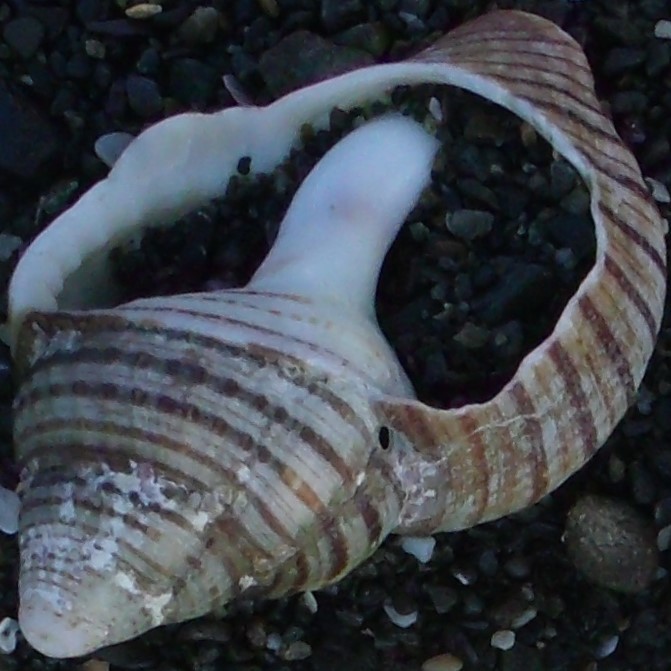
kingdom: Animalia
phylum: Mollusca
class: Gastropoda
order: Littorinimorpha
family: Cymatiidae
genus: Argobuccinum
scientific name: Argobuccinum pustulosum
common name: Pustular triton
